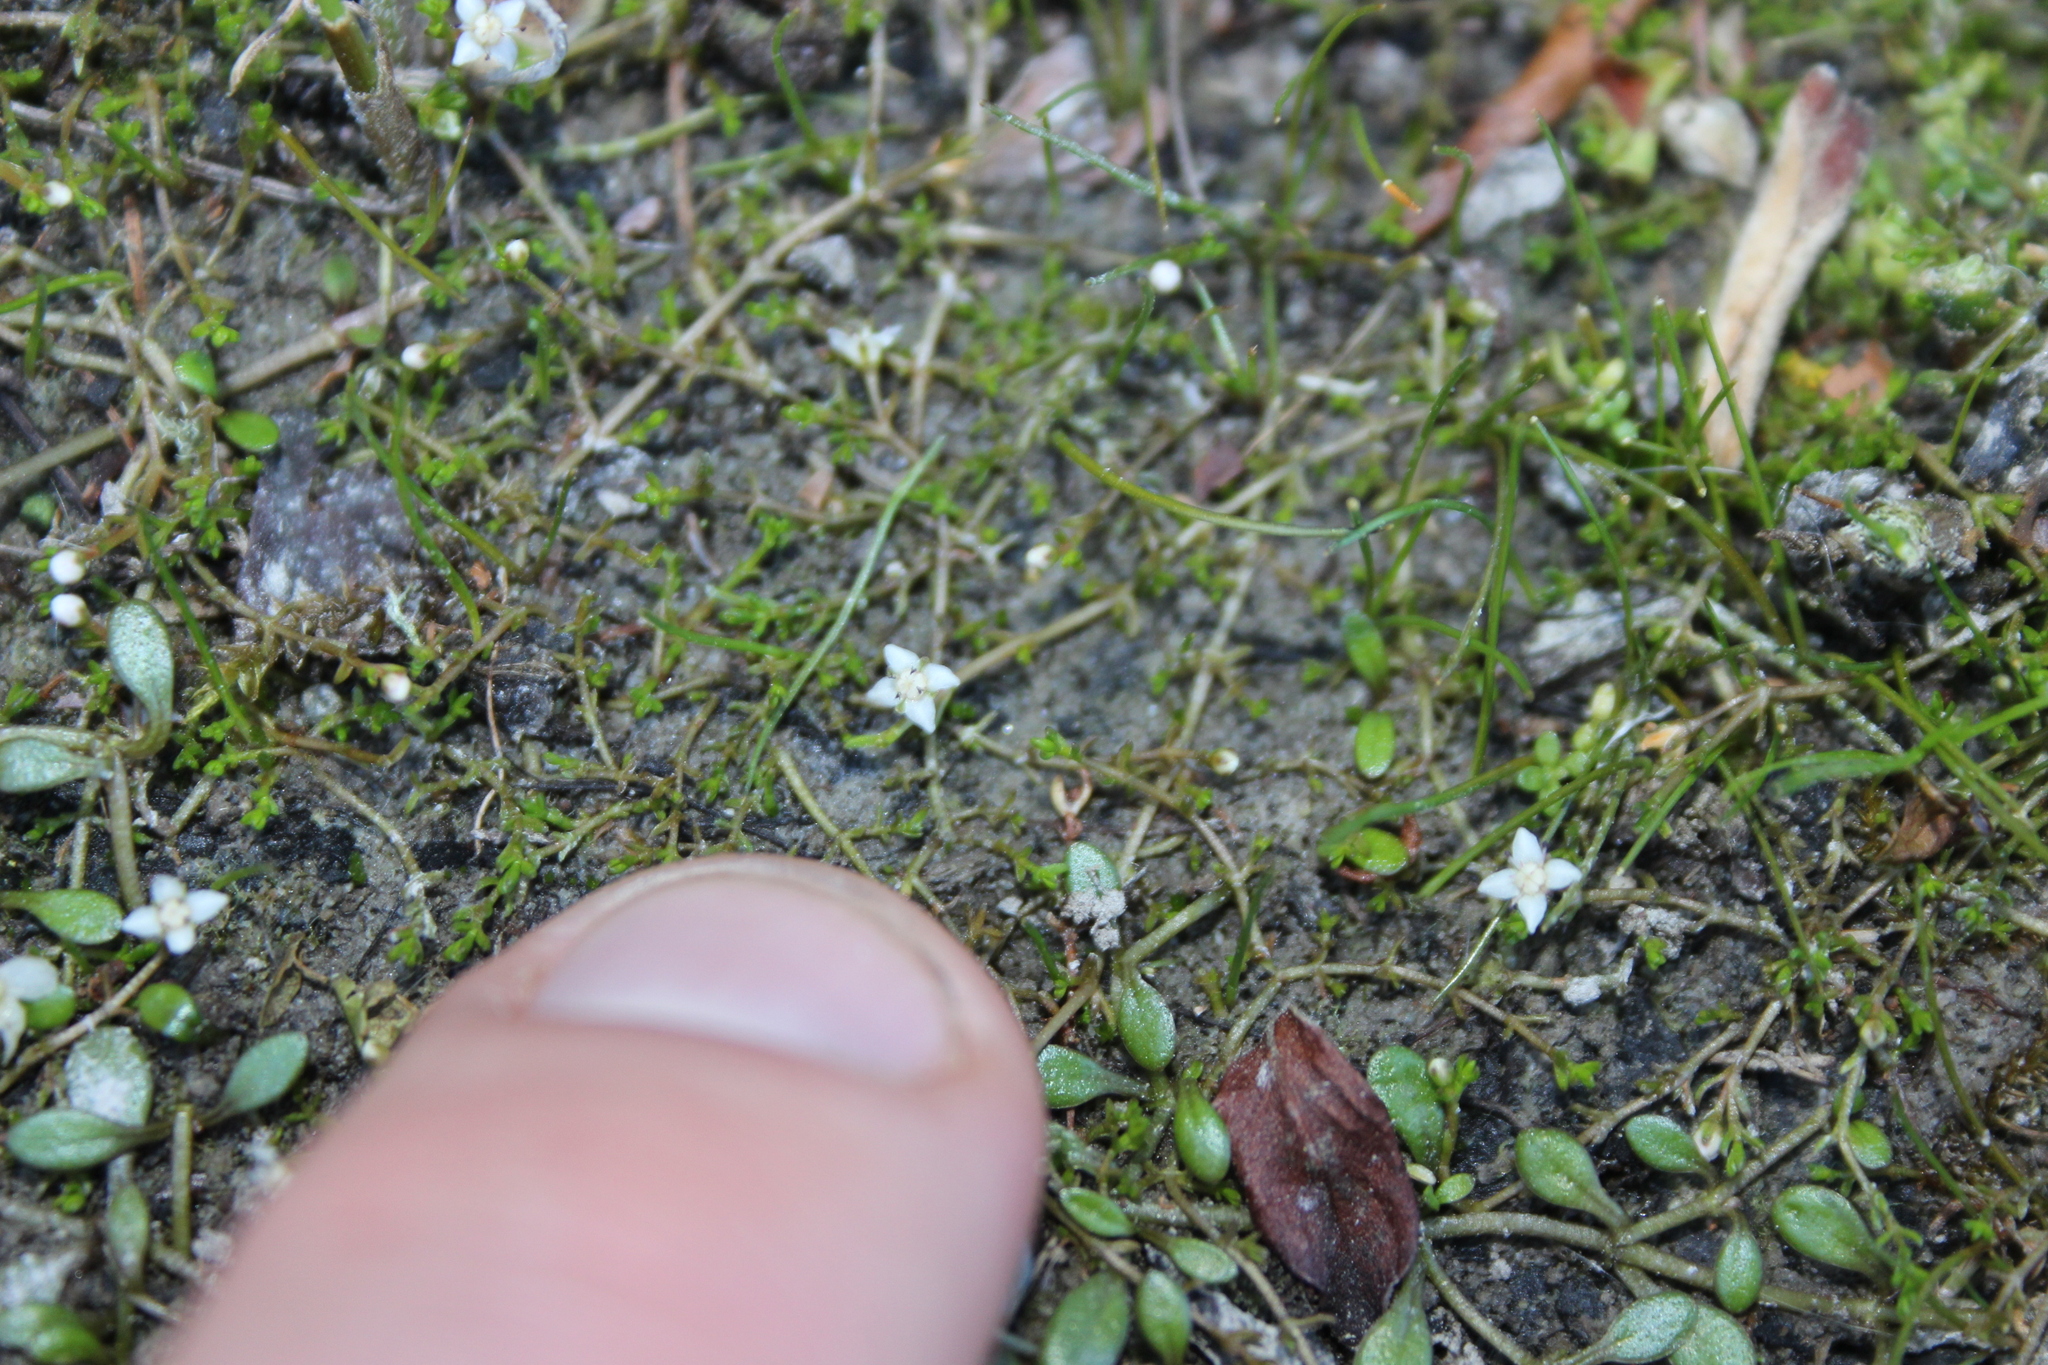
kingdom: Plantae
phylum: Tracheophyta
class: Magnoliopsida
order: Saxifragales
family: Crassulaceae
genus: Crassula
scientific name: Crassula sinclairii
